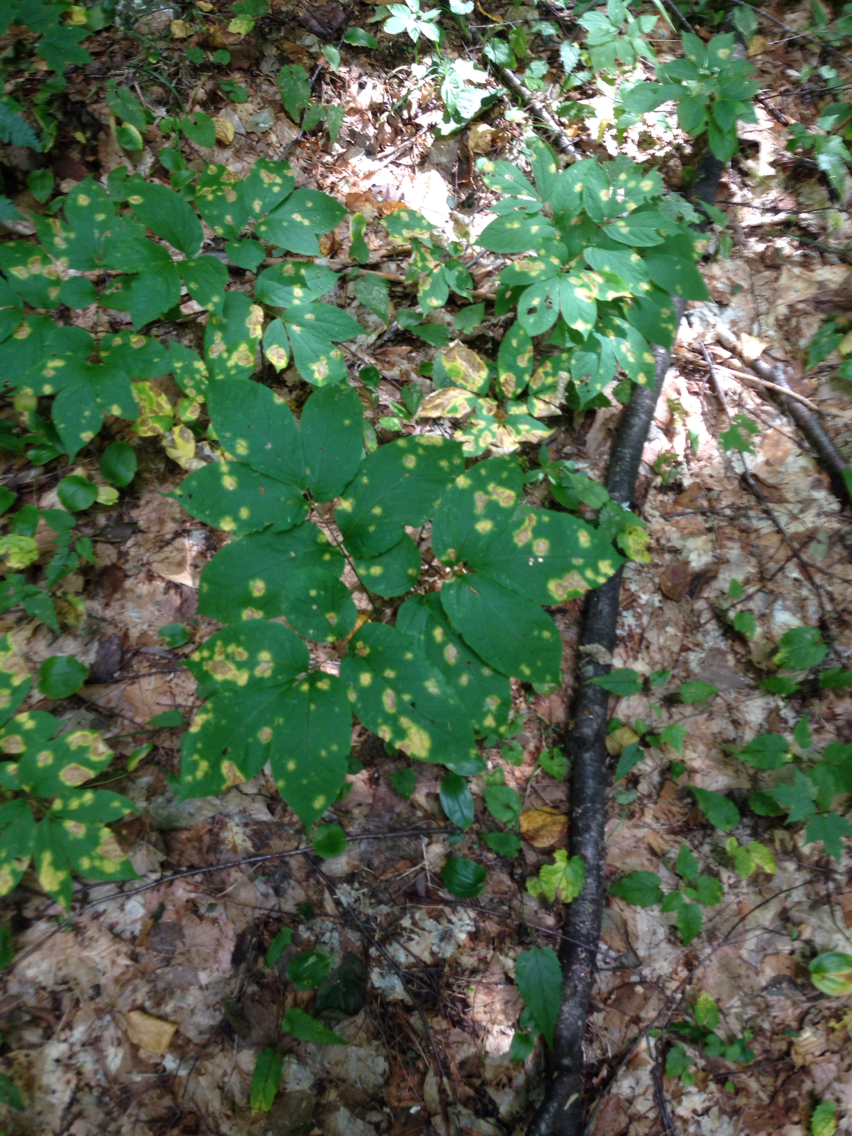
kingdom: Plantae
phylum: Tracheophyta
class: Magnoliopsida
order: Apiales
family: Araliaceae
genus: Aralia
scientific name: Aralia nudicaulis
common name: Wild sarsaparilla
